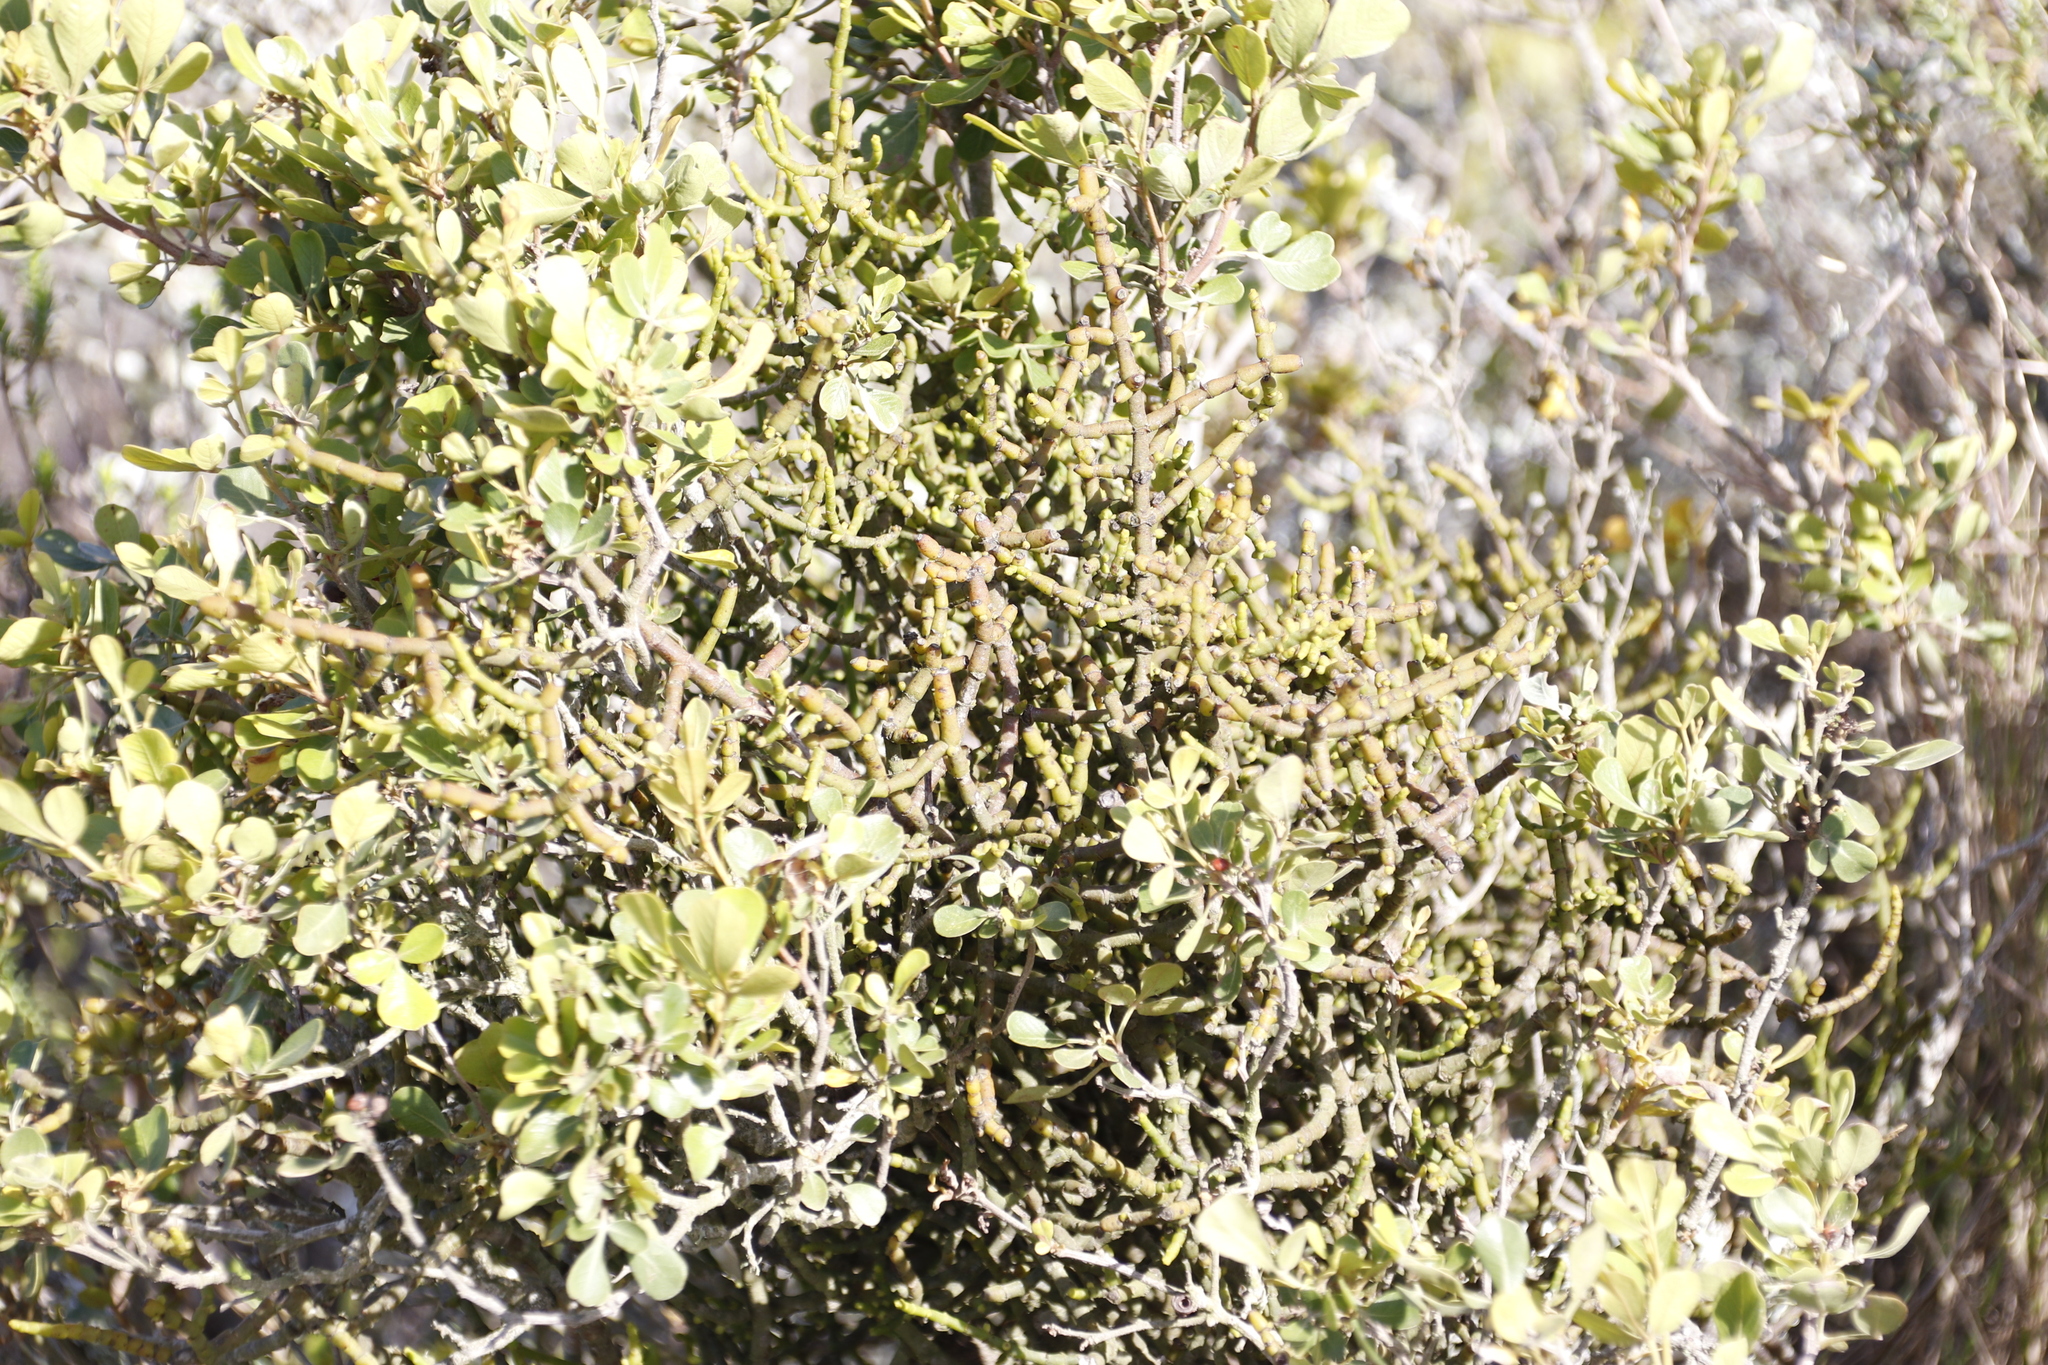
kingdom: Plantae
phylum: Tracheophyta
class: Magnoliopsida
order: Santalales
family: Viscaceae
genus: Viscum
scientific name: Viscum hoolei
